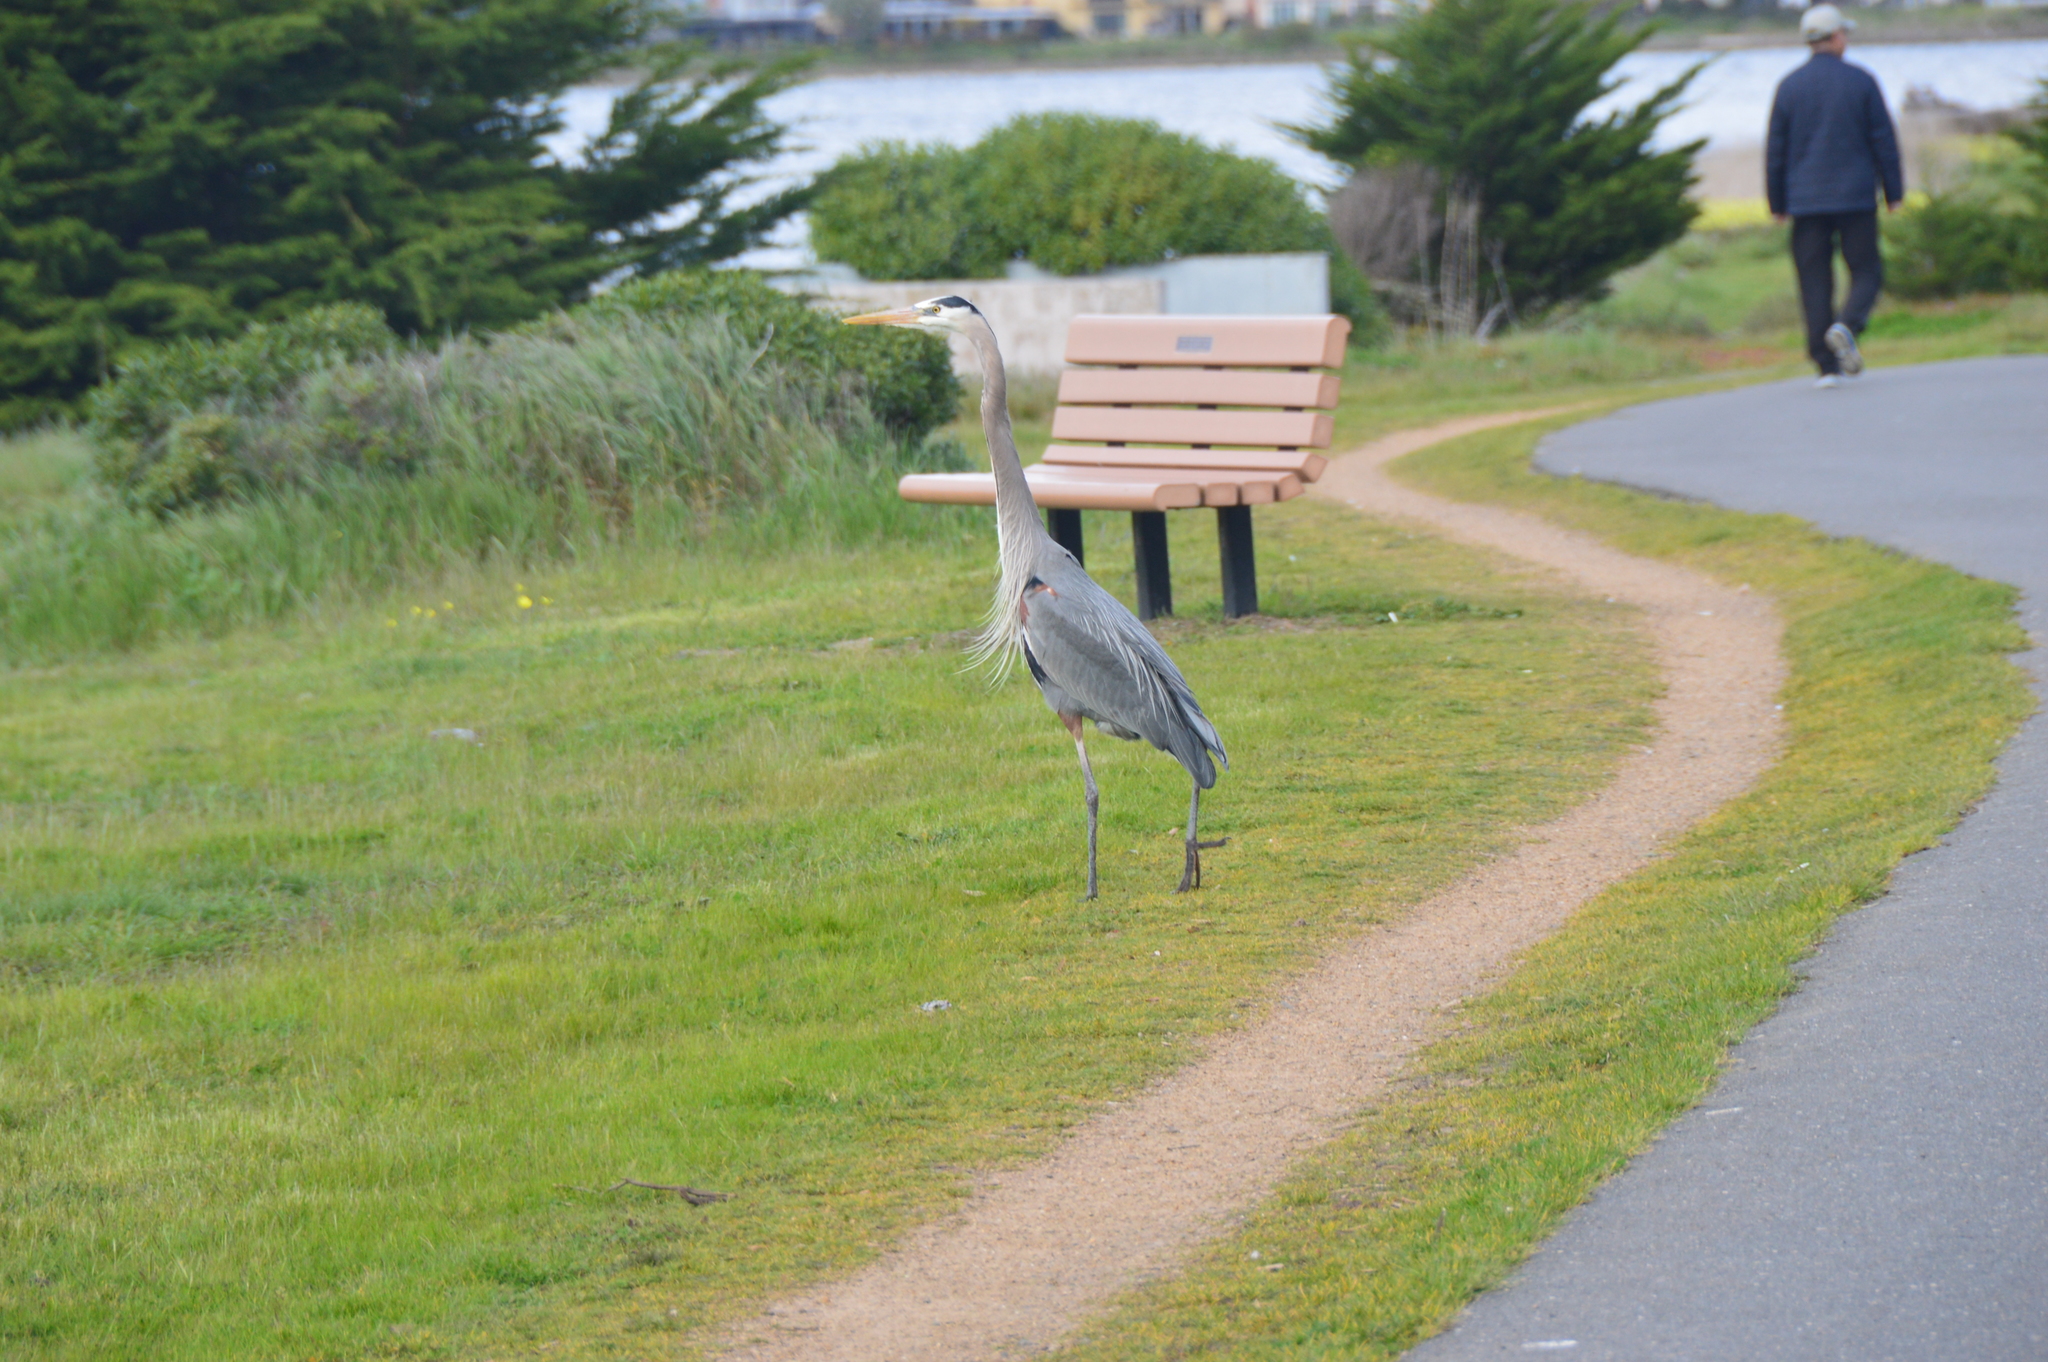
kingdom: Animalia
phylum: Chordata
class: Aves
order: Pelecaniformes
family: Ardeidae
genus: Ardea
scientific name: Ardea herodias
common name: Great blue heron
